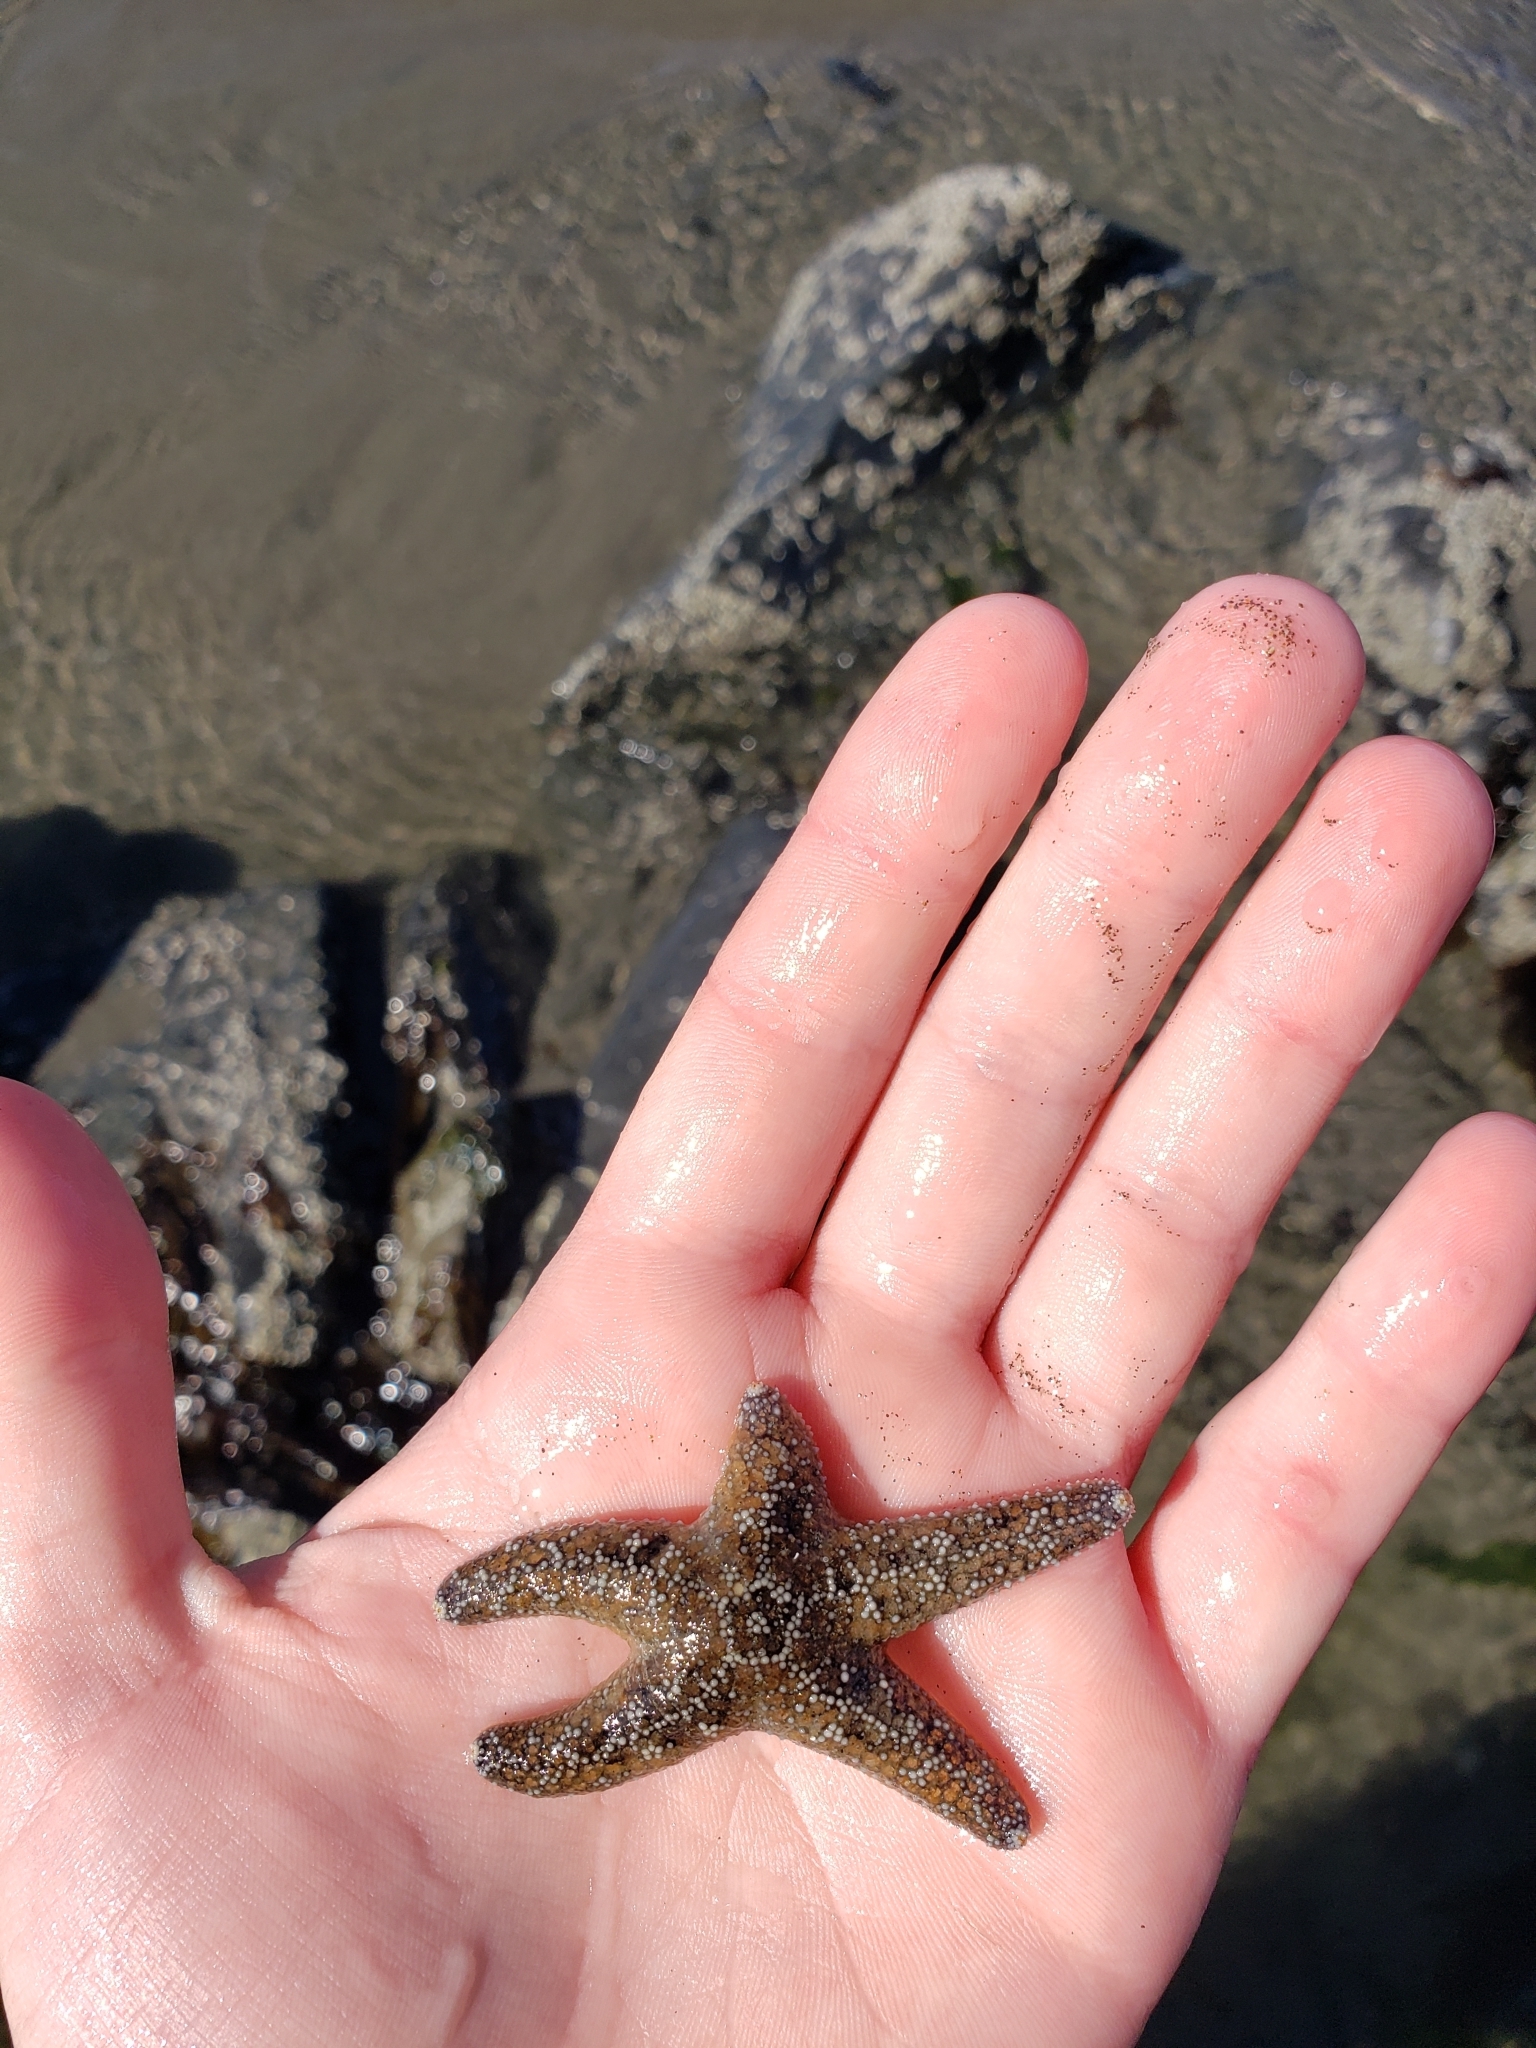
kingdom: Animalia
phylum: Echinodermata
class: Asteroidea
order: Forcipulatida
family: Asteriidae
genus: Pisaster
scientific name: Pisaster ochraceus
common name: Ochre stars
